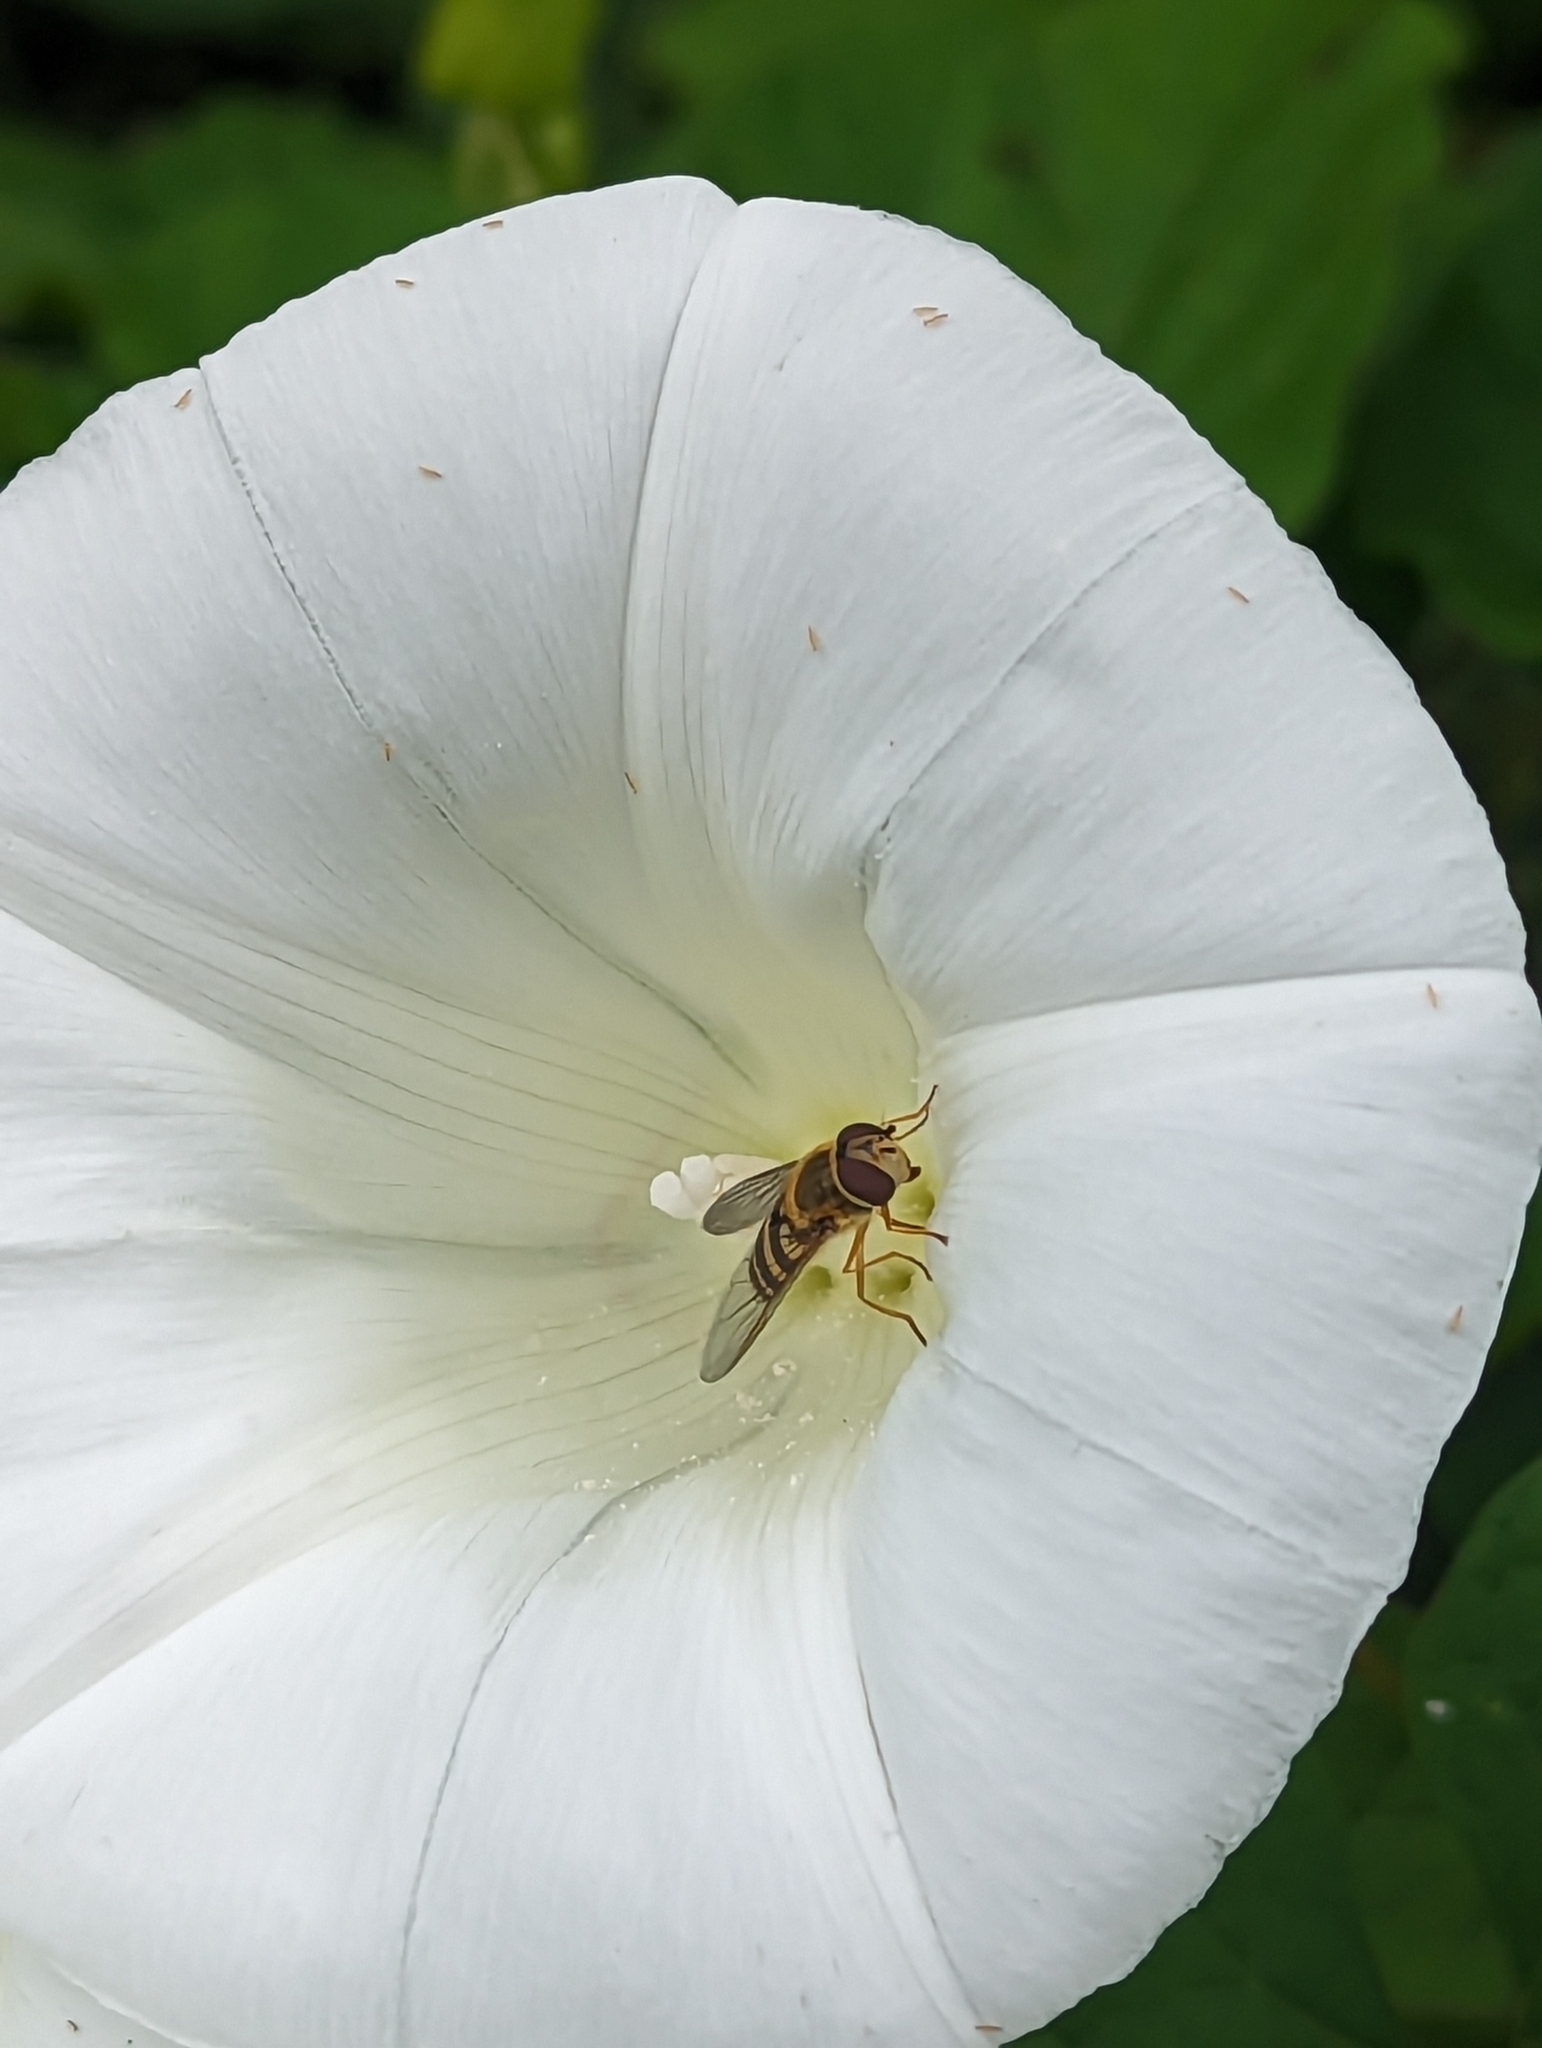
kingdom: Animalia
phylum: Arthropoda
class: Insecta
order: Diptera
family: Syrphidae
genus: Syrphus
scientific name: Syrphus ribesii
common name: Common flower fly
